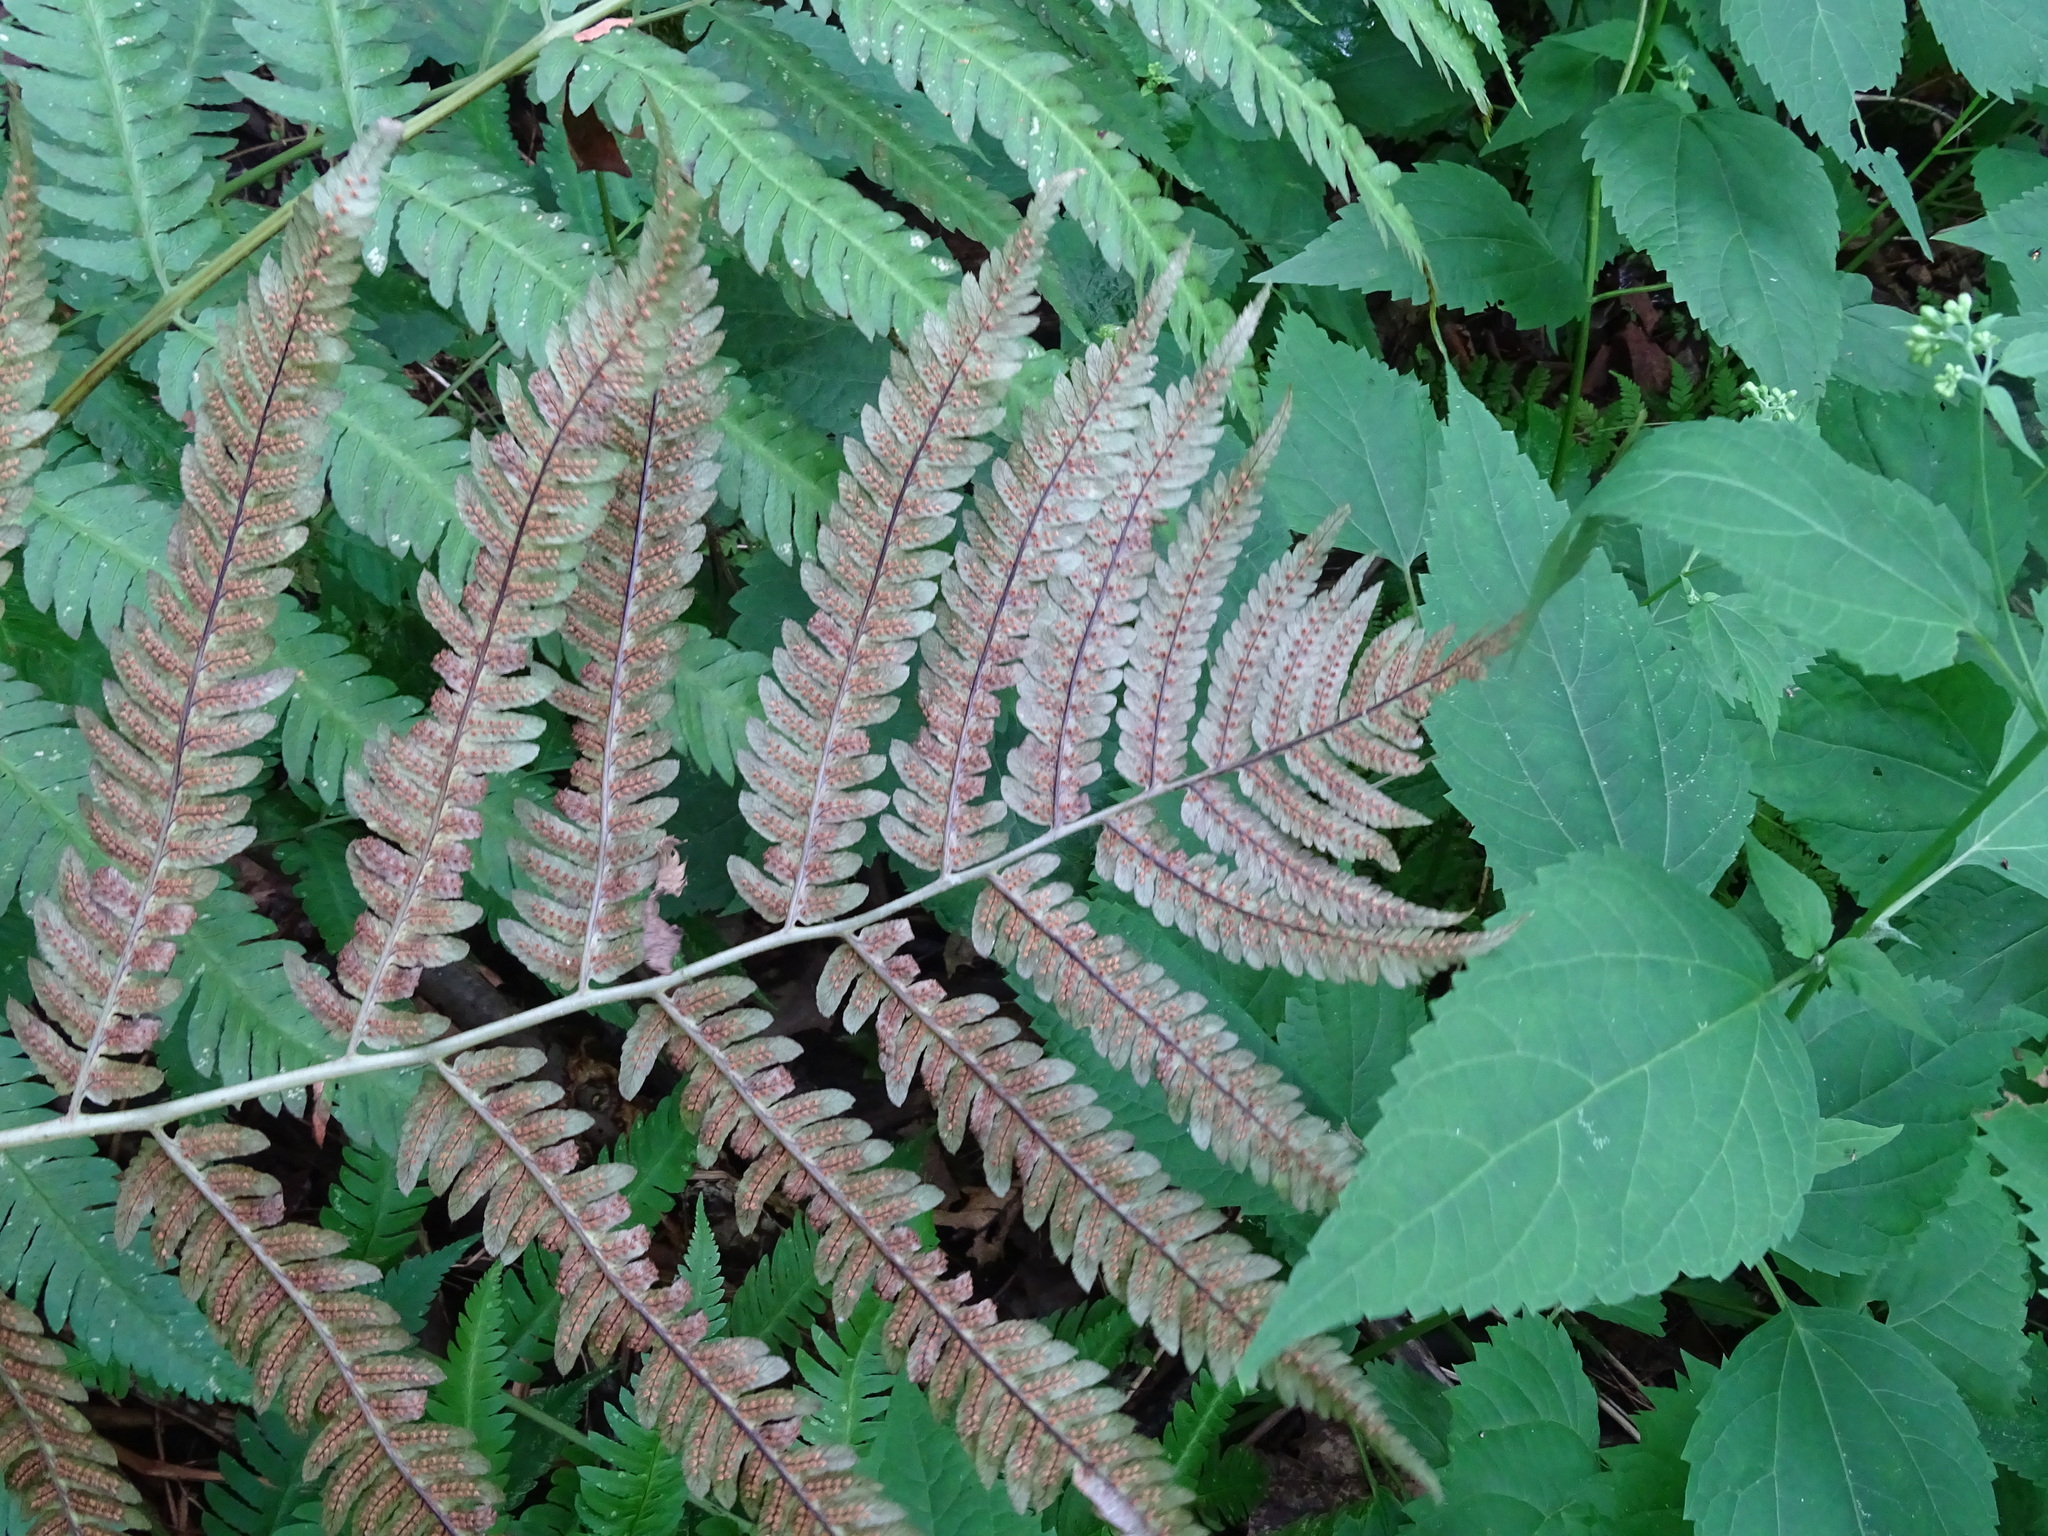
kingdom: Plantae
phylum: Tracheophyta
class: Polypodiopsida
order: Polypodiales
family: Dryopteridaceae
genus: Dryopteris
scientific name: Dryopteris goldieana
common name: Goldie's fern
